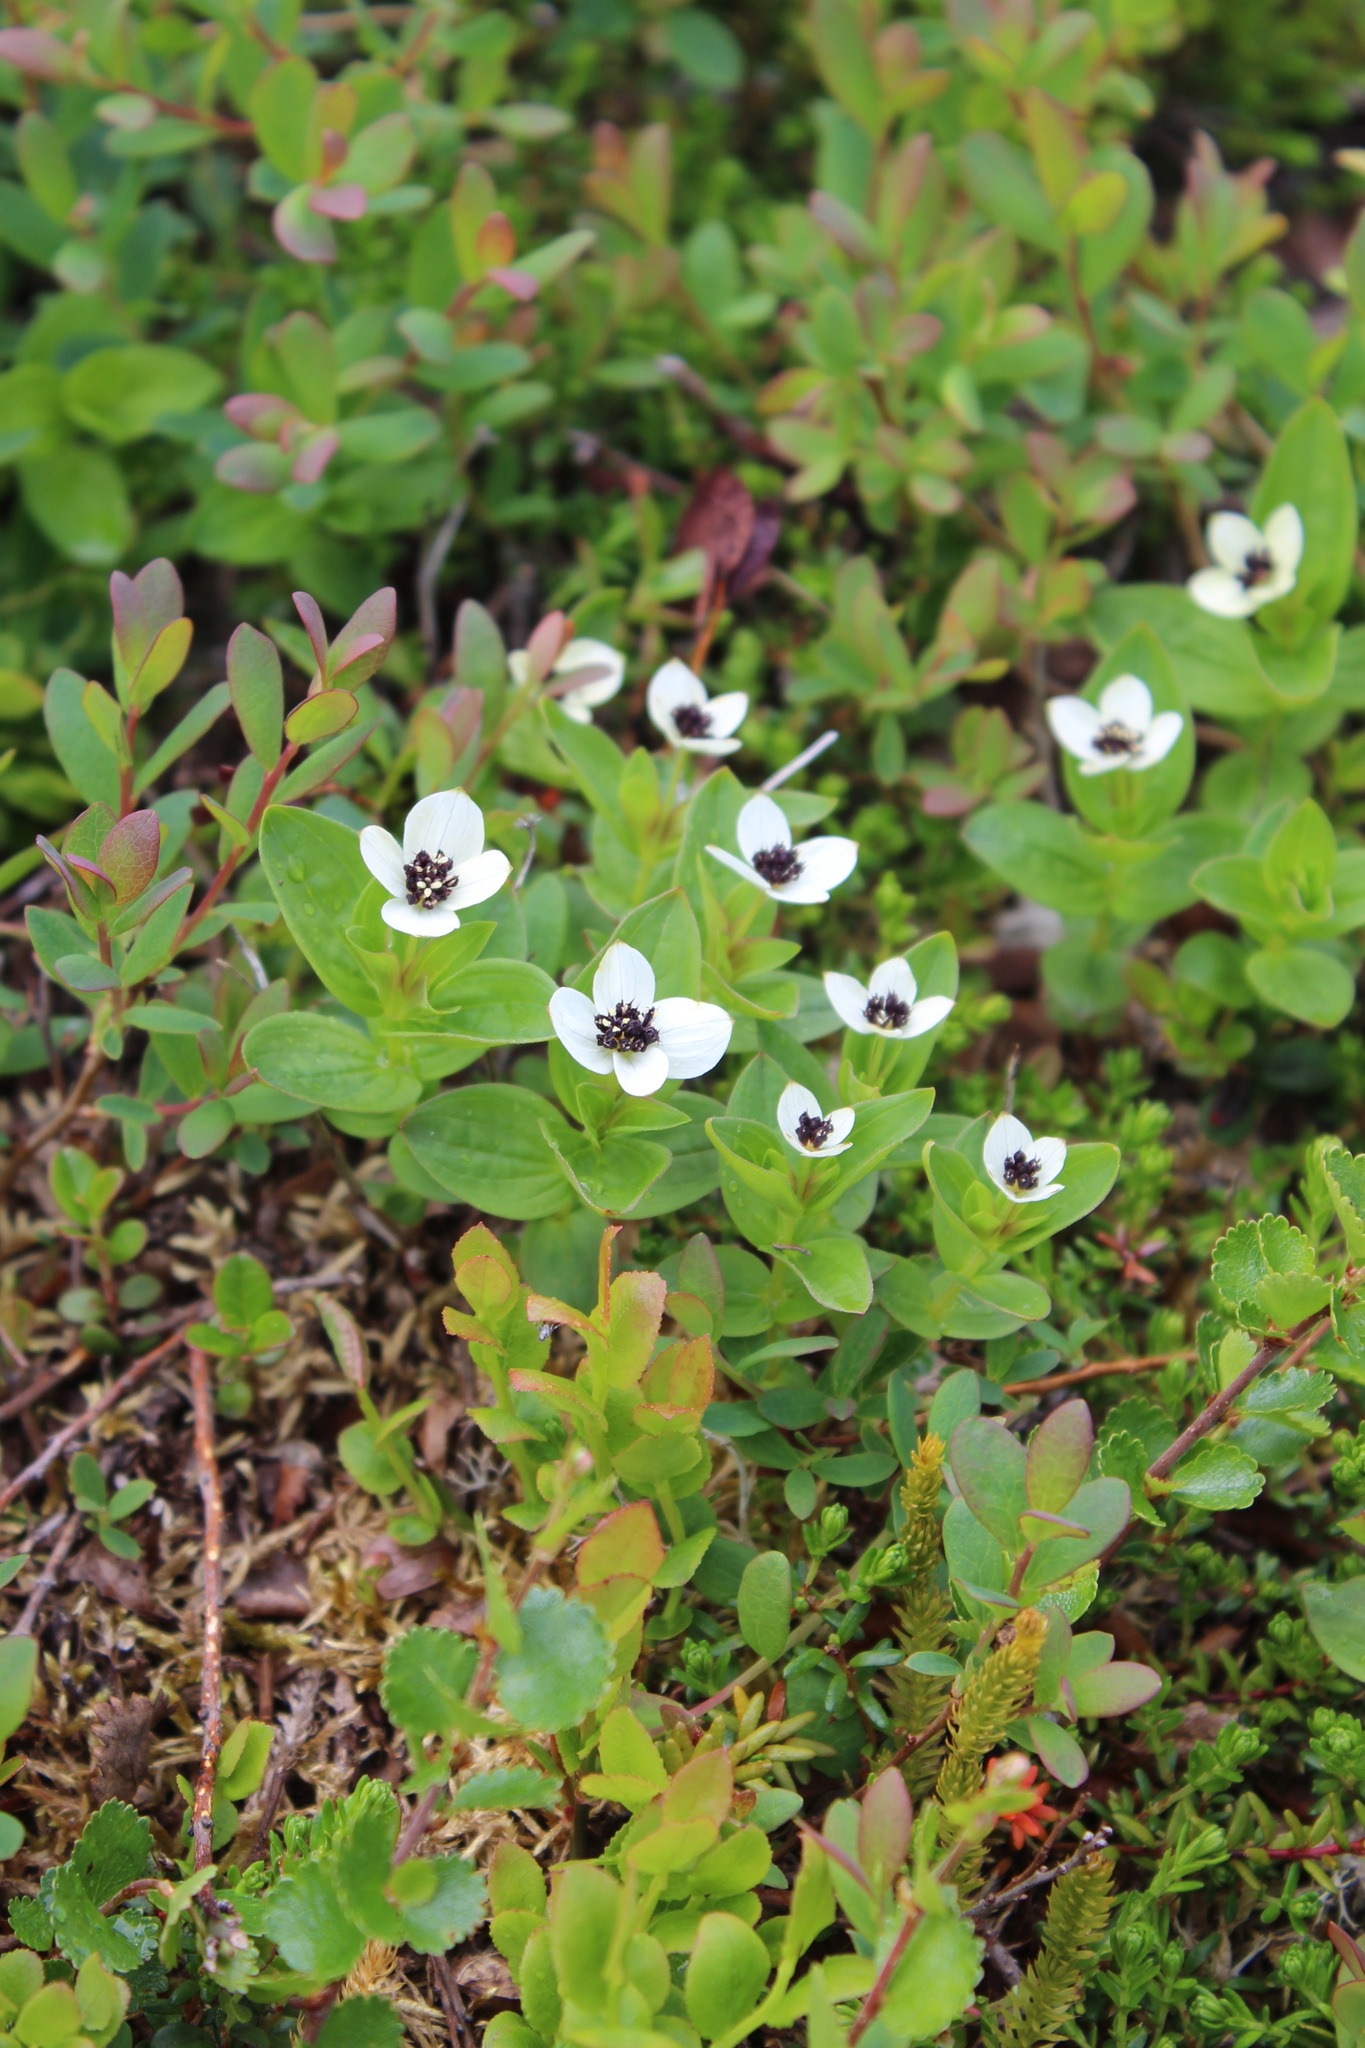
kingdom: Plantae
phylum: Tracheophyta
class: Magnoliopsida
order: Cornales
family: Cornaceae
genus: Cornus
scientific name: Cornus suecica
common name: Dwarf cornel
